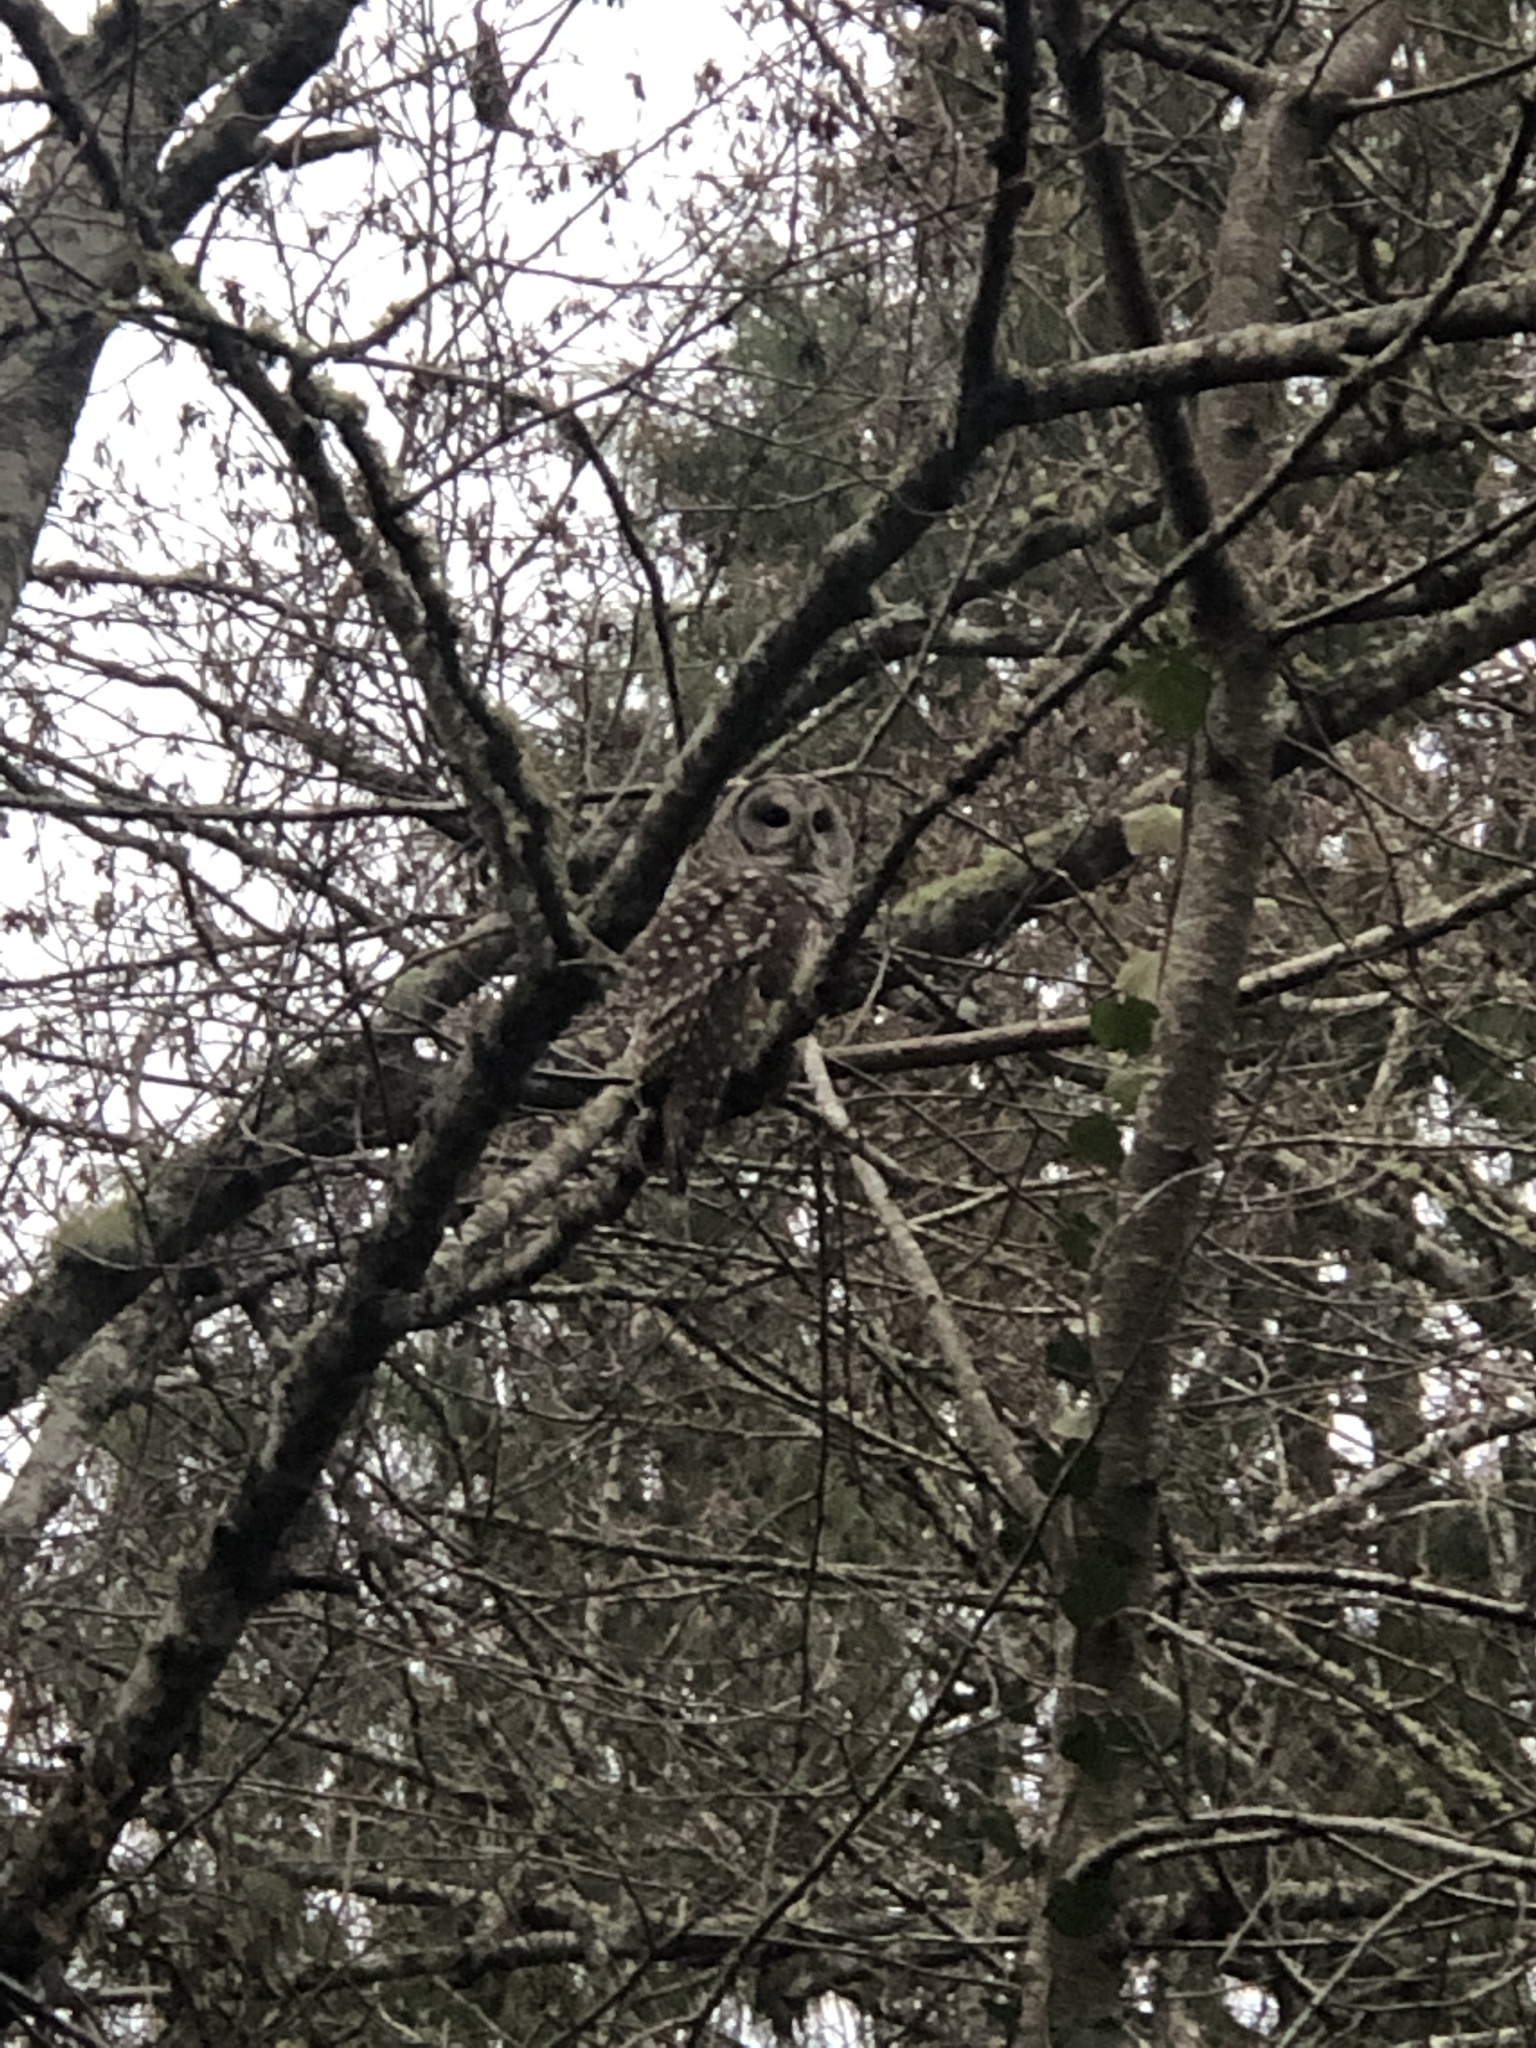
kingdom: Animalia
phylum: Chordata
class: Aves
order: Strigiformes
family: Strigidae
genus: Strix
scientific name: Strix varia
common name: Barred owl
